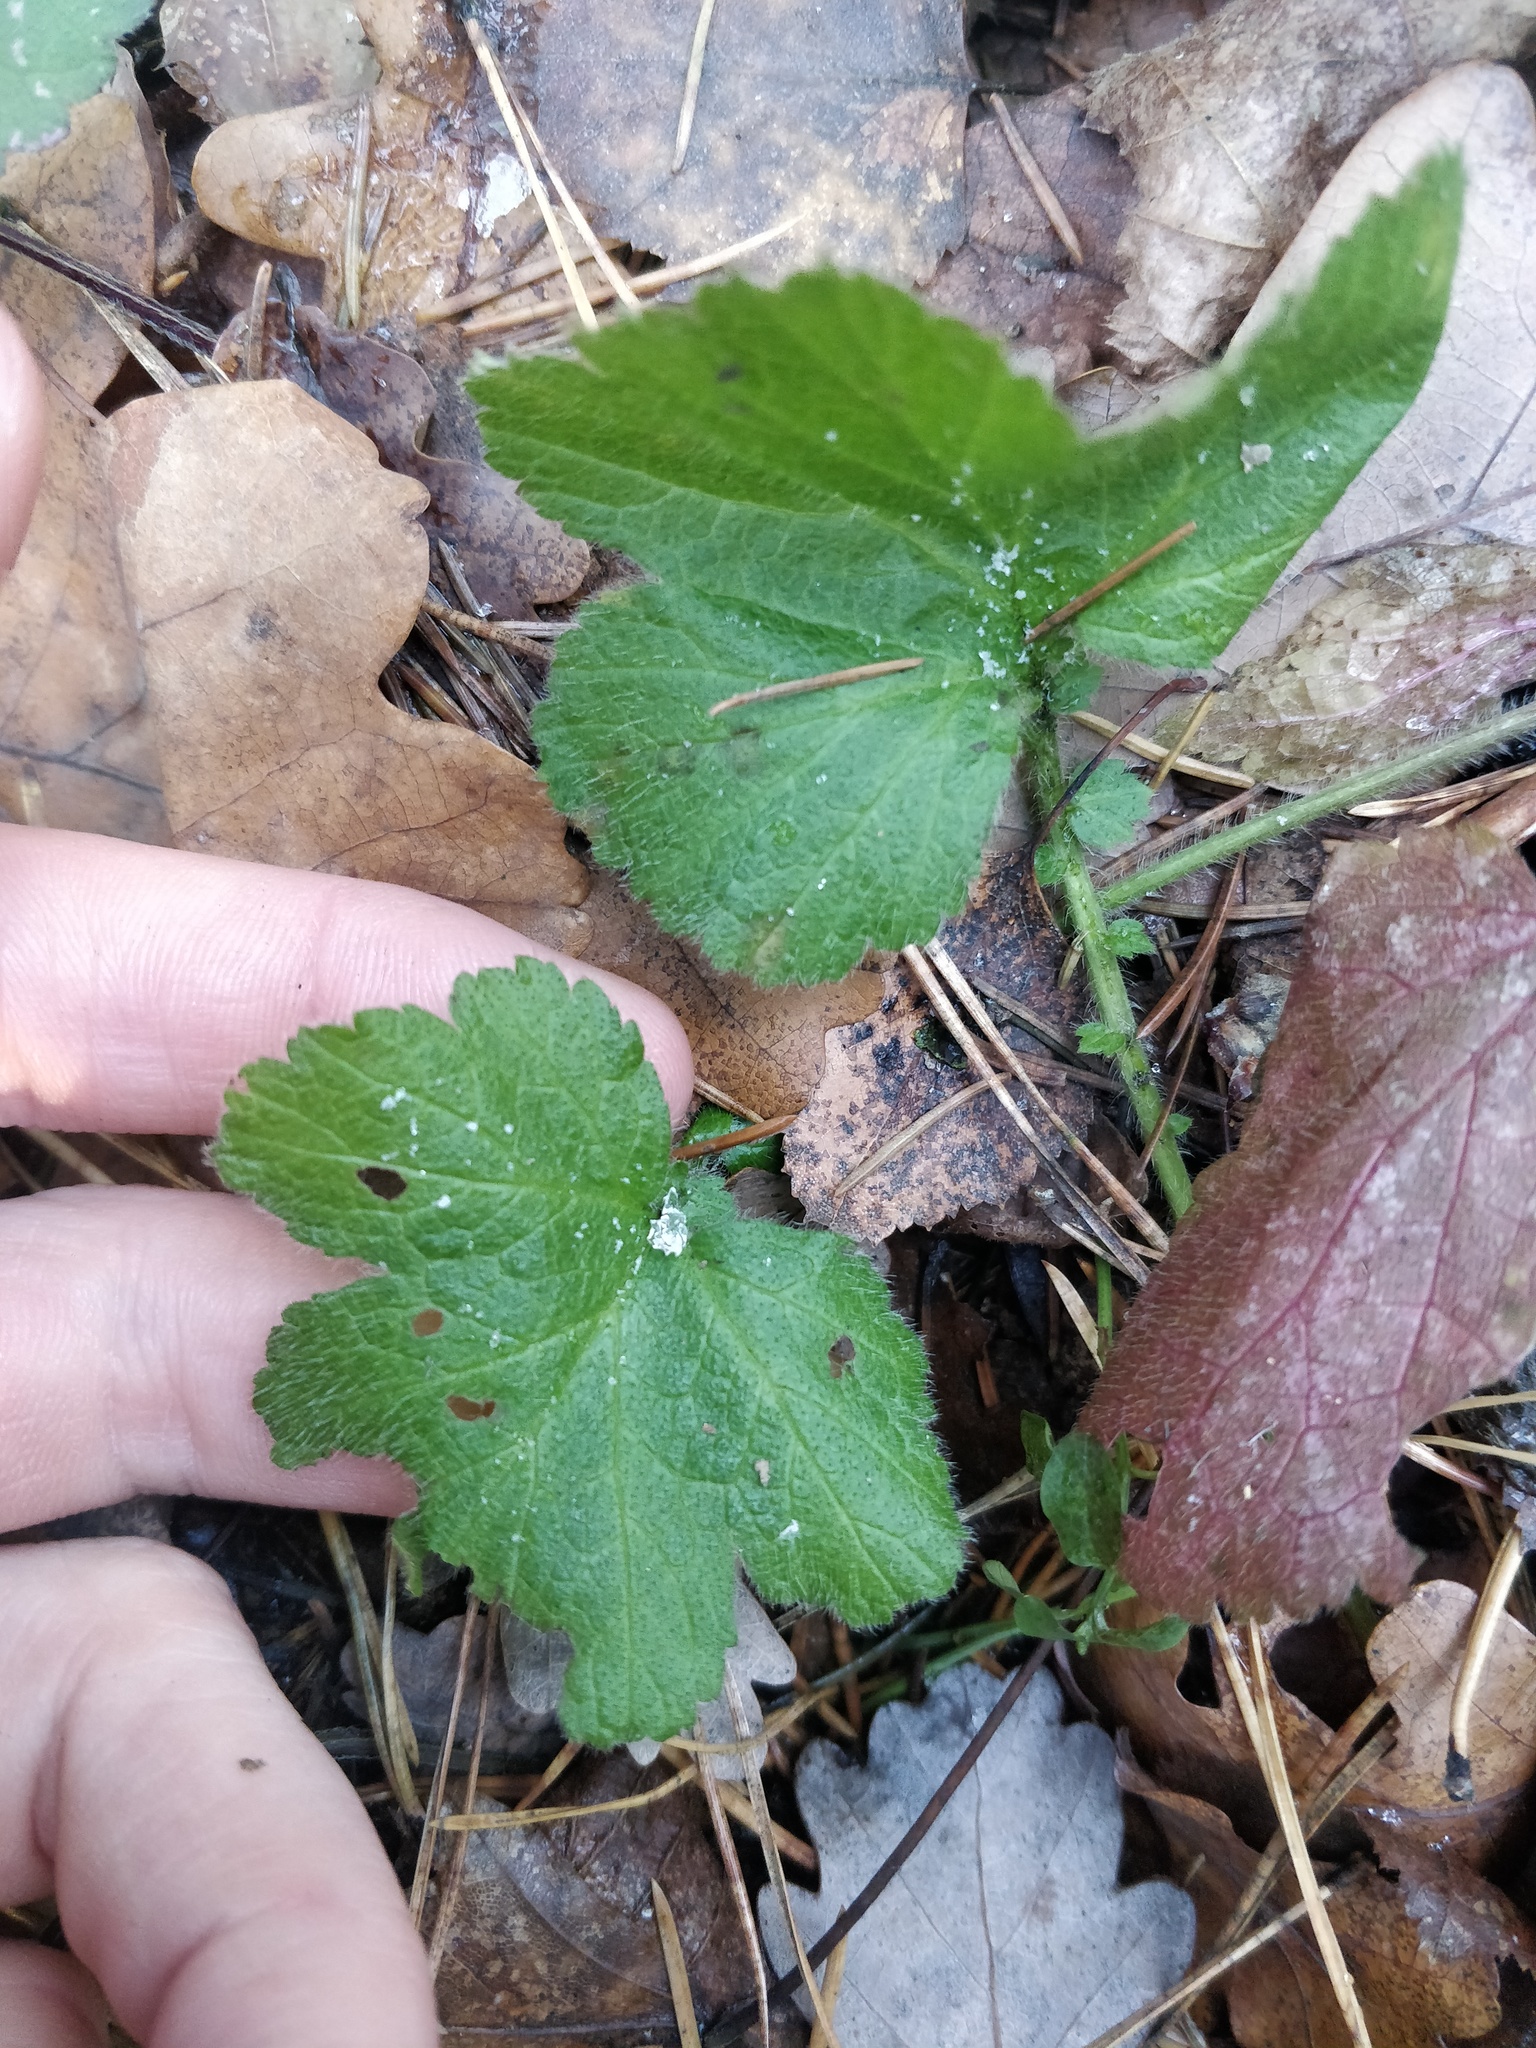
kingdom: Plantae
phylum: Tracheophyta
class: Magnoliopsida
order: Rosales
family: Rosaceae
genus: Geum
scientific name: Geum
